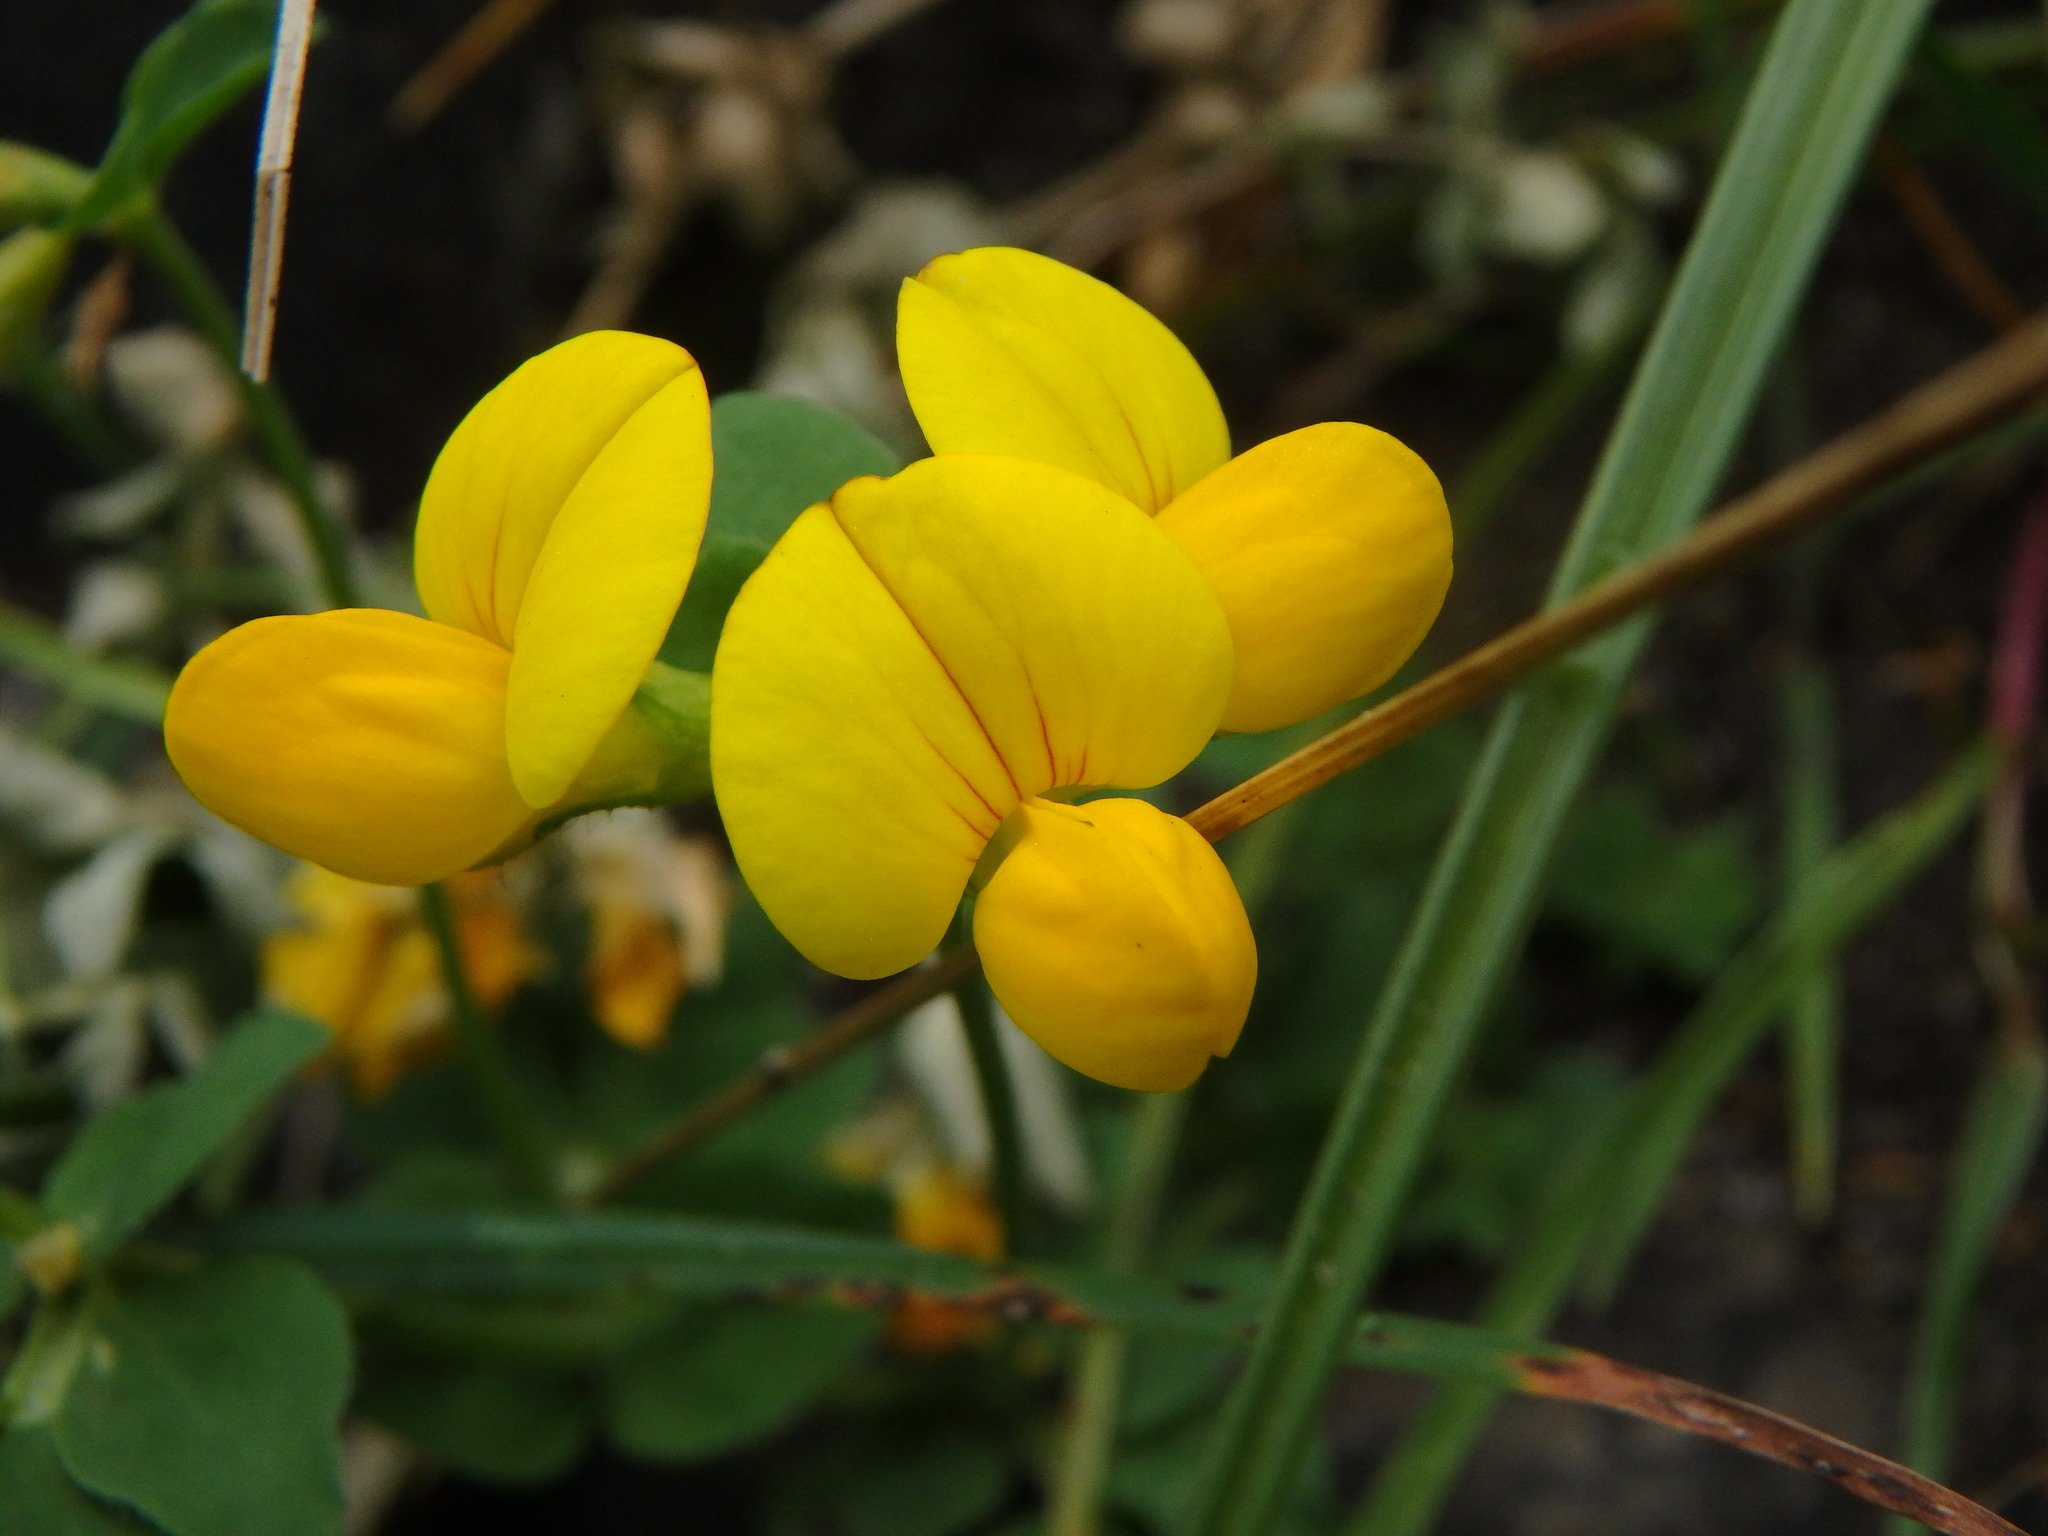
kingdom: Plantae
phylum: Tracheophyta
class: Magnoliopsida
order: Fabales
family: Fabaceae
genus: Lotus
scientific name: Lotus corniculatus
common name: Common bird's-foot-trefoil
